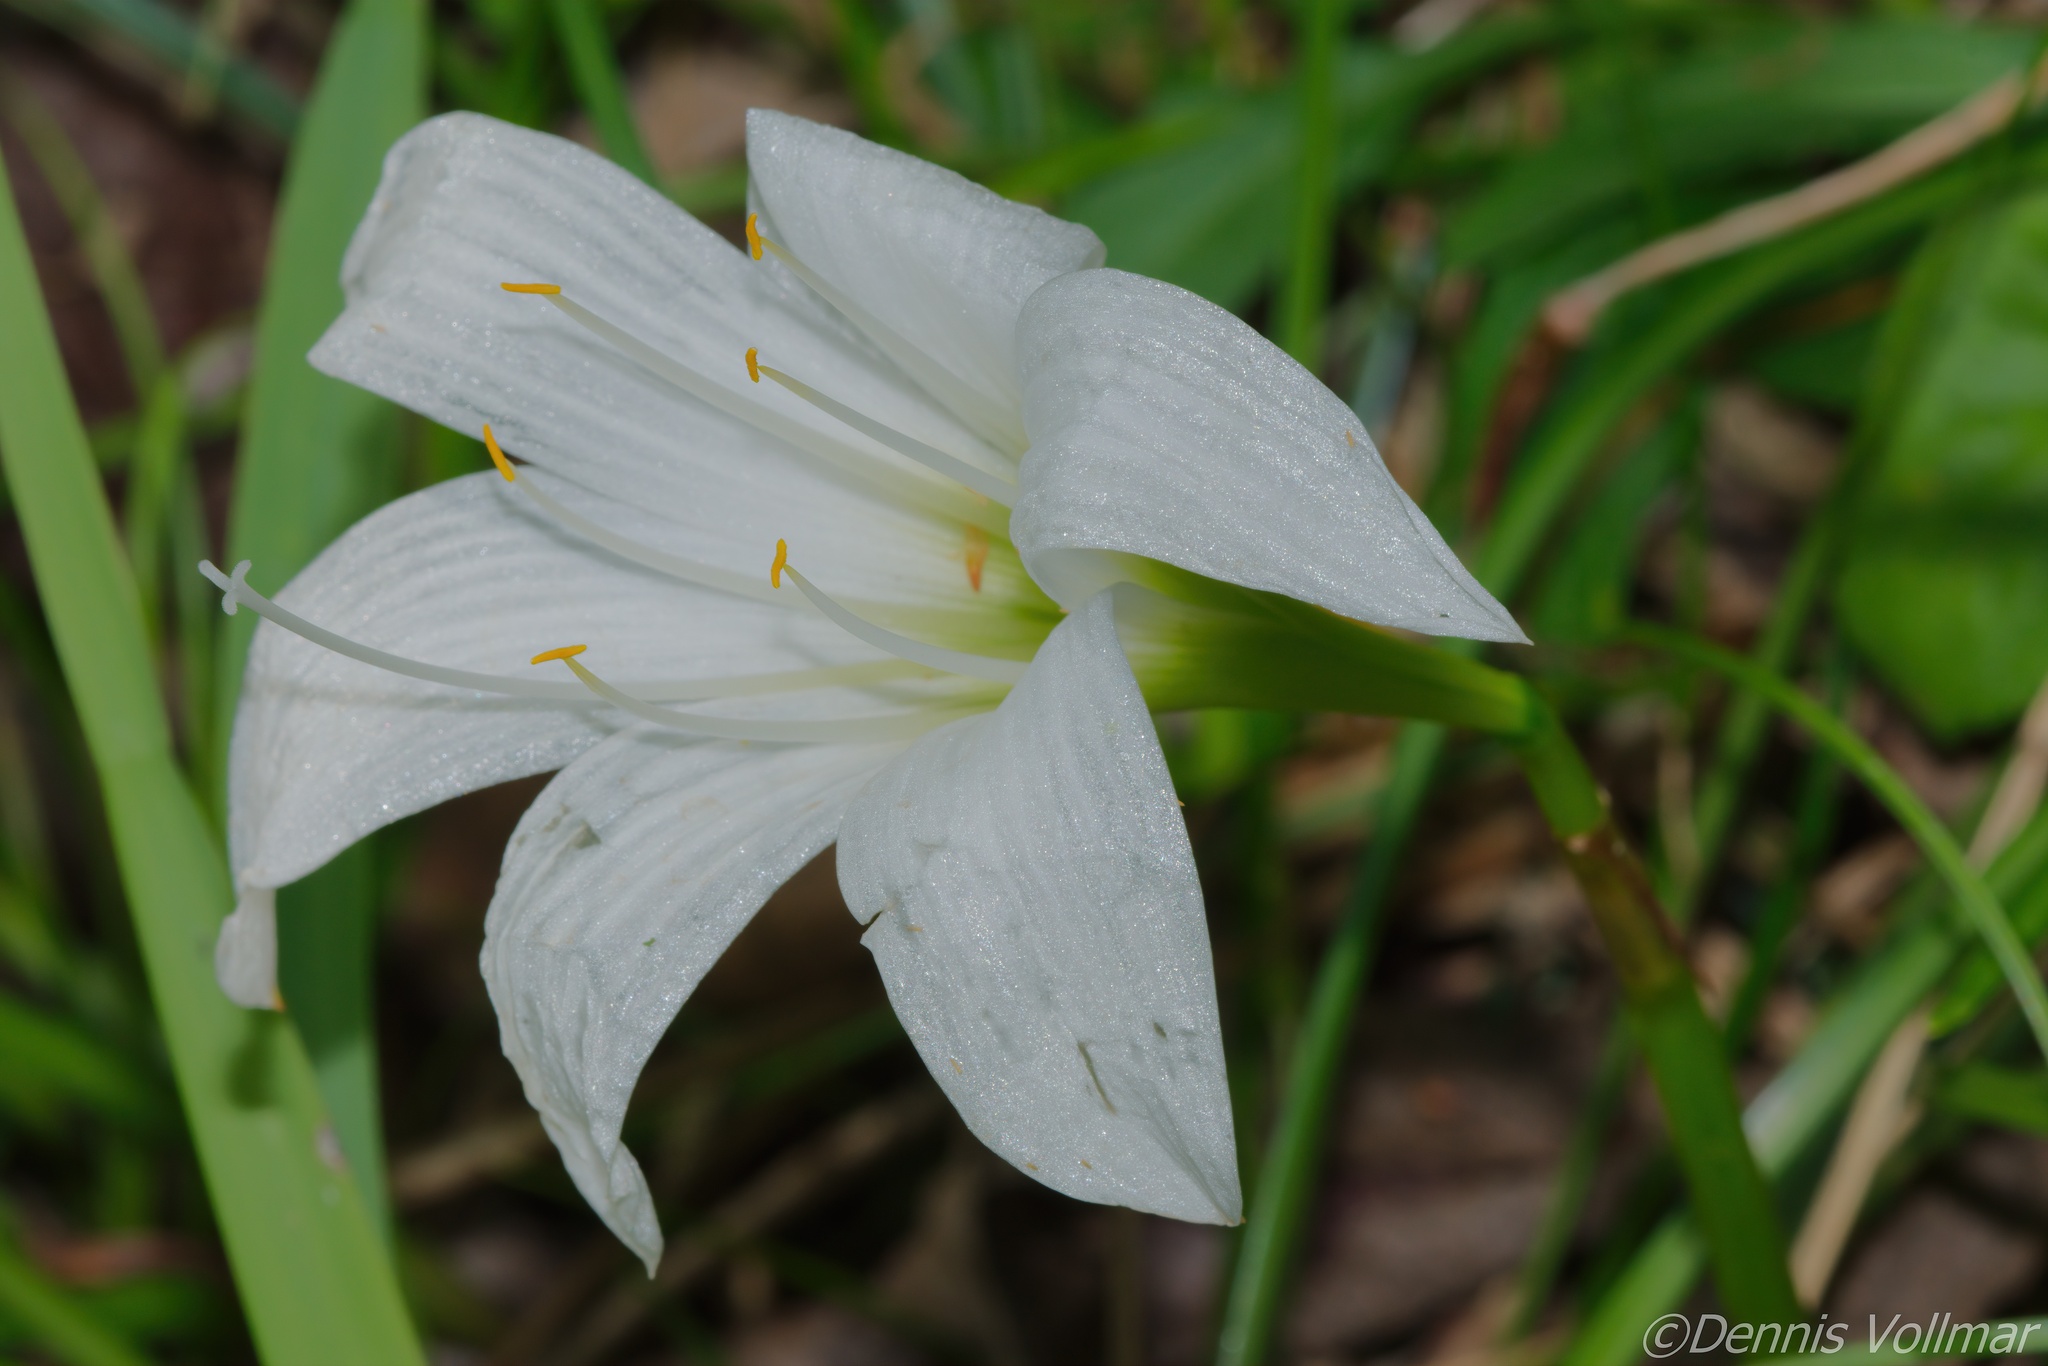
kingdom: Plantae
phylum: Tracheophyta
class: Liliopsida
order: Asparagales
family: Amaryllidaceae
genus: Zephyranthes
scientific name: Zephyranthes atamasco
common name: Atamasco lily
